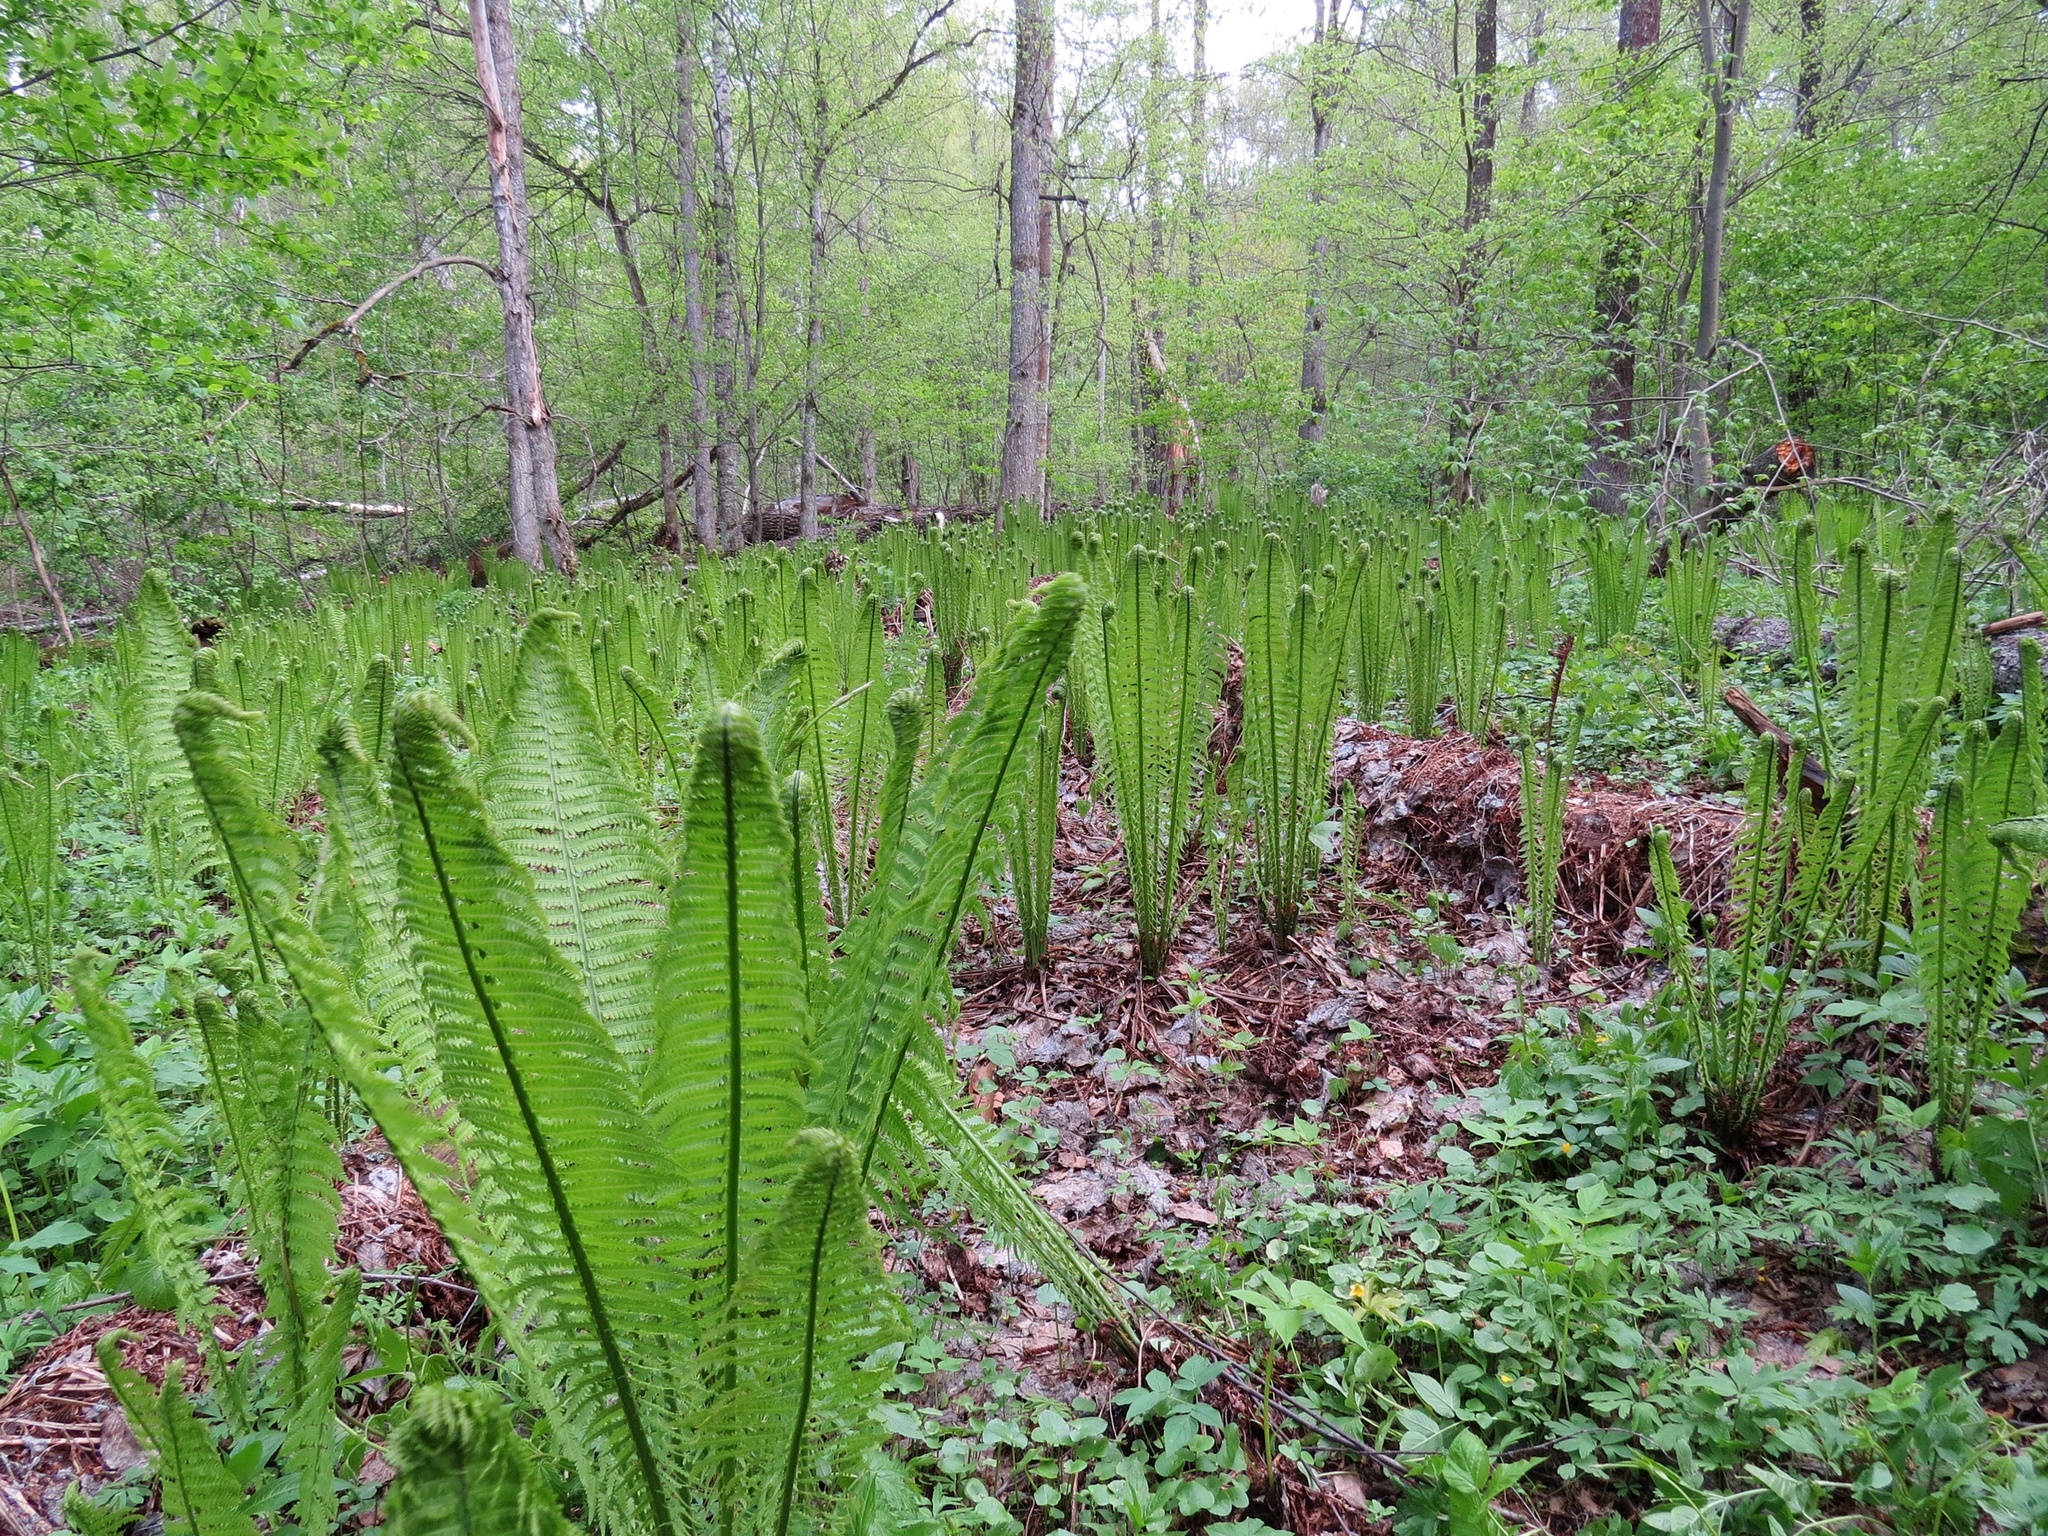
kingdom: Plantae
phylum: Tracheophyta
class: Polypodiopsida
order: Polypodiales
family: Onocleaceae
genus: Matteuccia
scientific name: Matteuccia struthiopteris
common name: Ostrich fern
